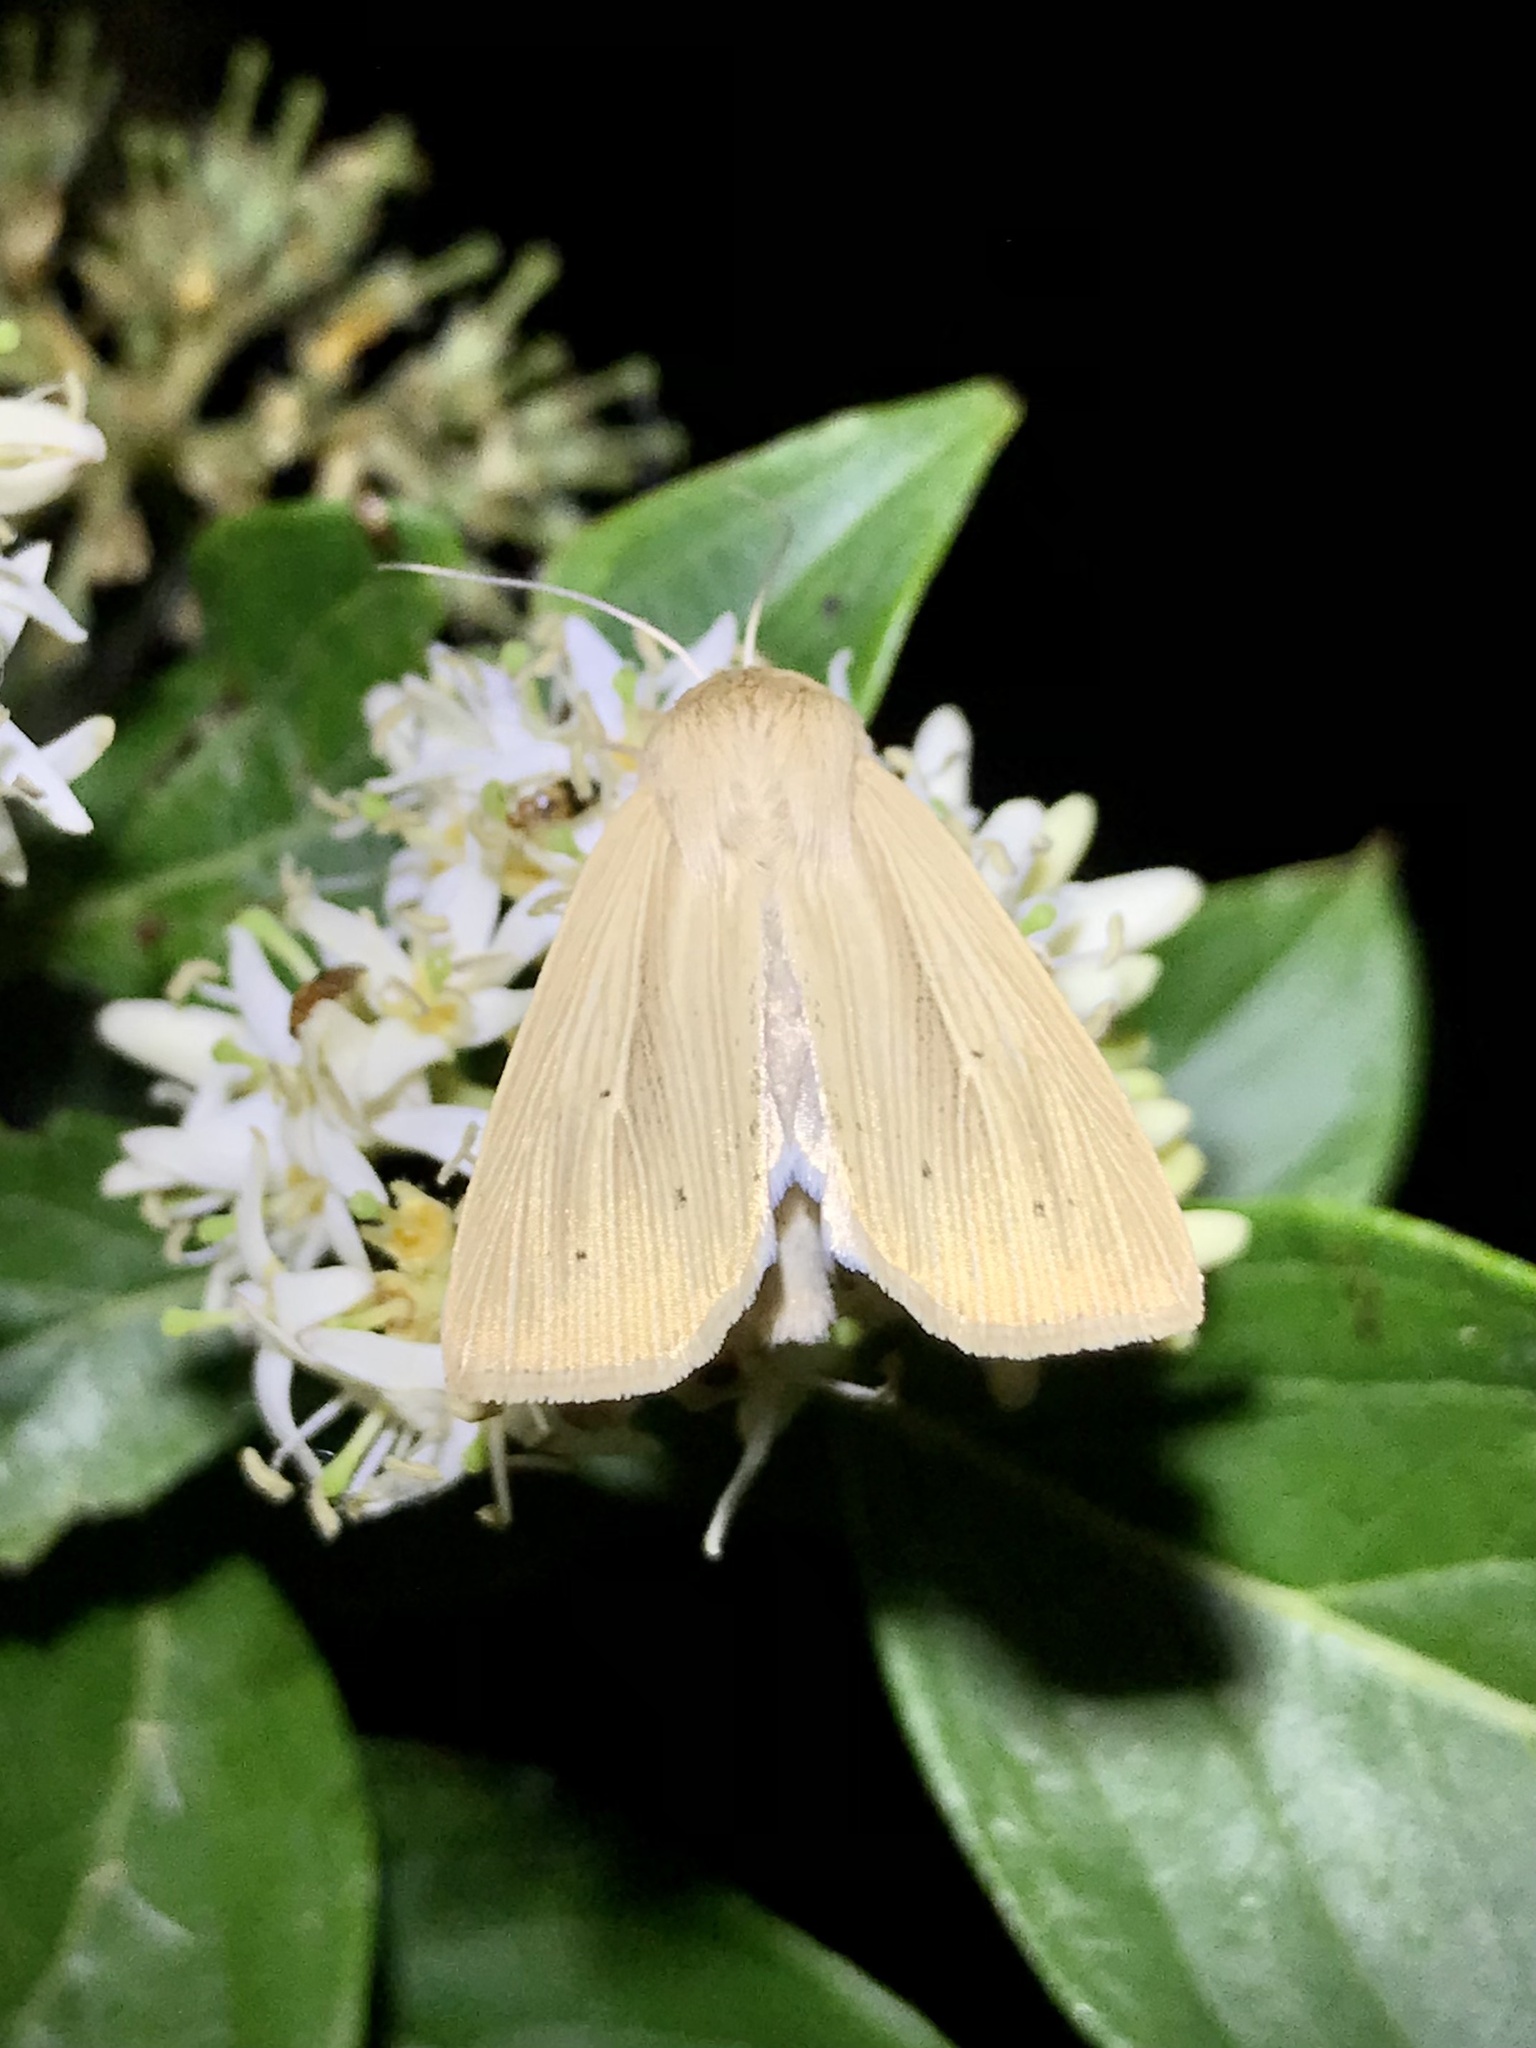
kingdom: Animalia
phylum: Arthropoda
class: Insecta
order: Lepidoptera
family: Noctuidae
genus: Mythimna
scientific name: Mythimna oxygala
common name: Lesser wainscot
